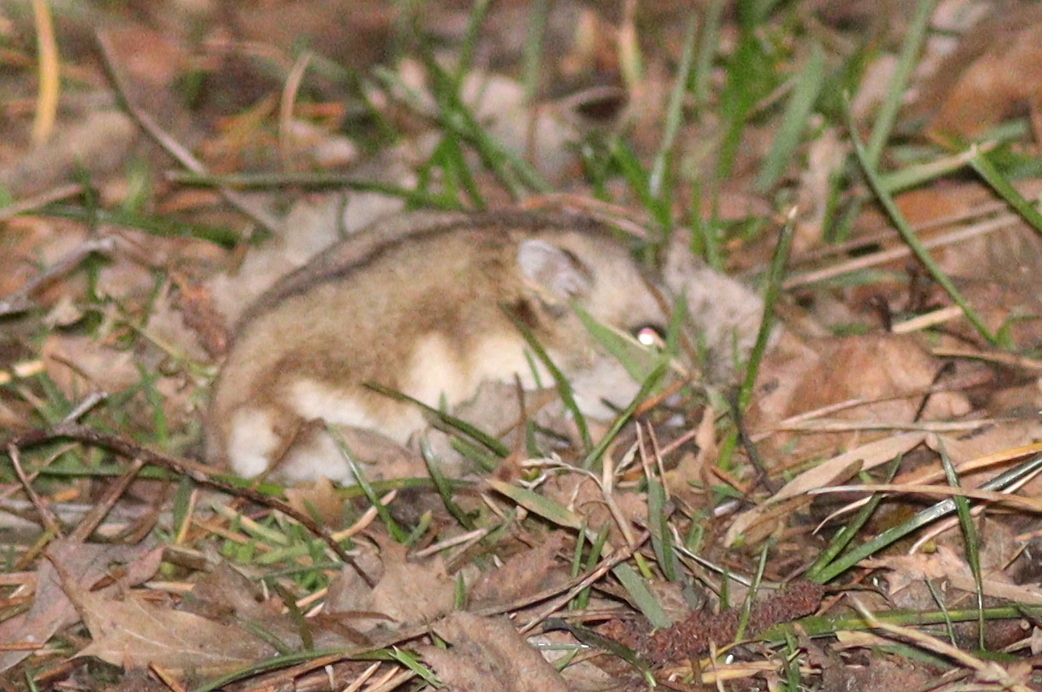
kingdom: Animalia
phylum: Chordata
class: Mammalia
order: Rodentia
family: Cricetidae
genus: Phodopus
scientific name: Phodopus sungorus
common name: Striped desert hamster
